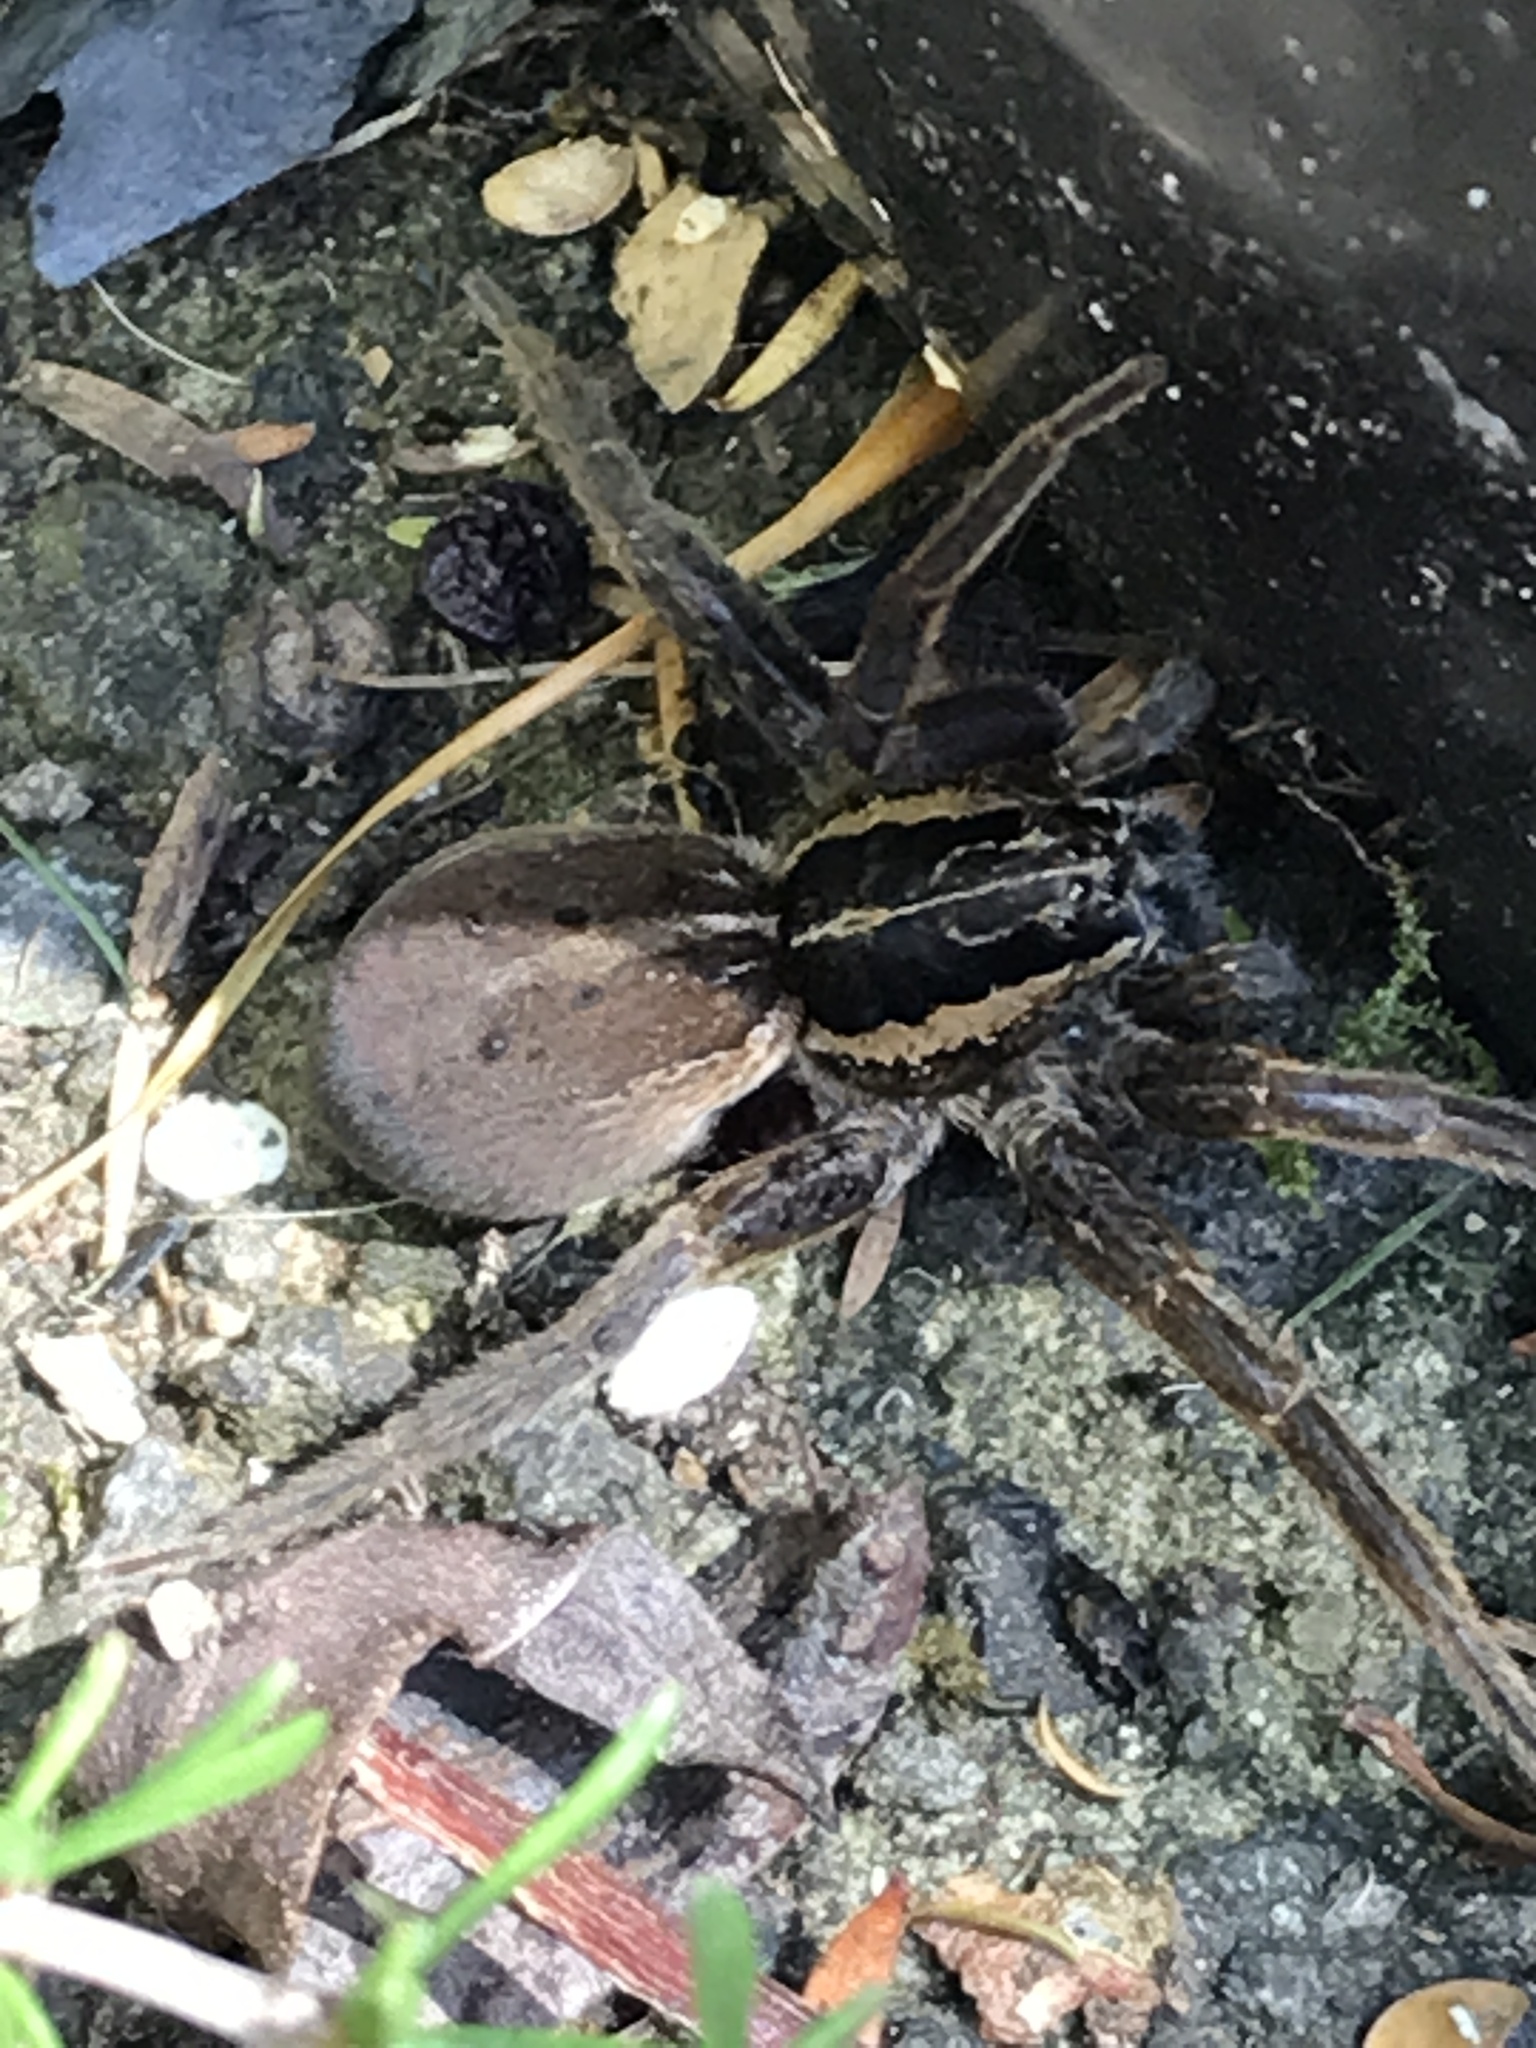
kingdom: Animalia
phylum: Arthropoda
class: Arachnida
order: Araneae
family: Pisauridae
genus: Dolomedes
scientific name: Dolomedes minor
